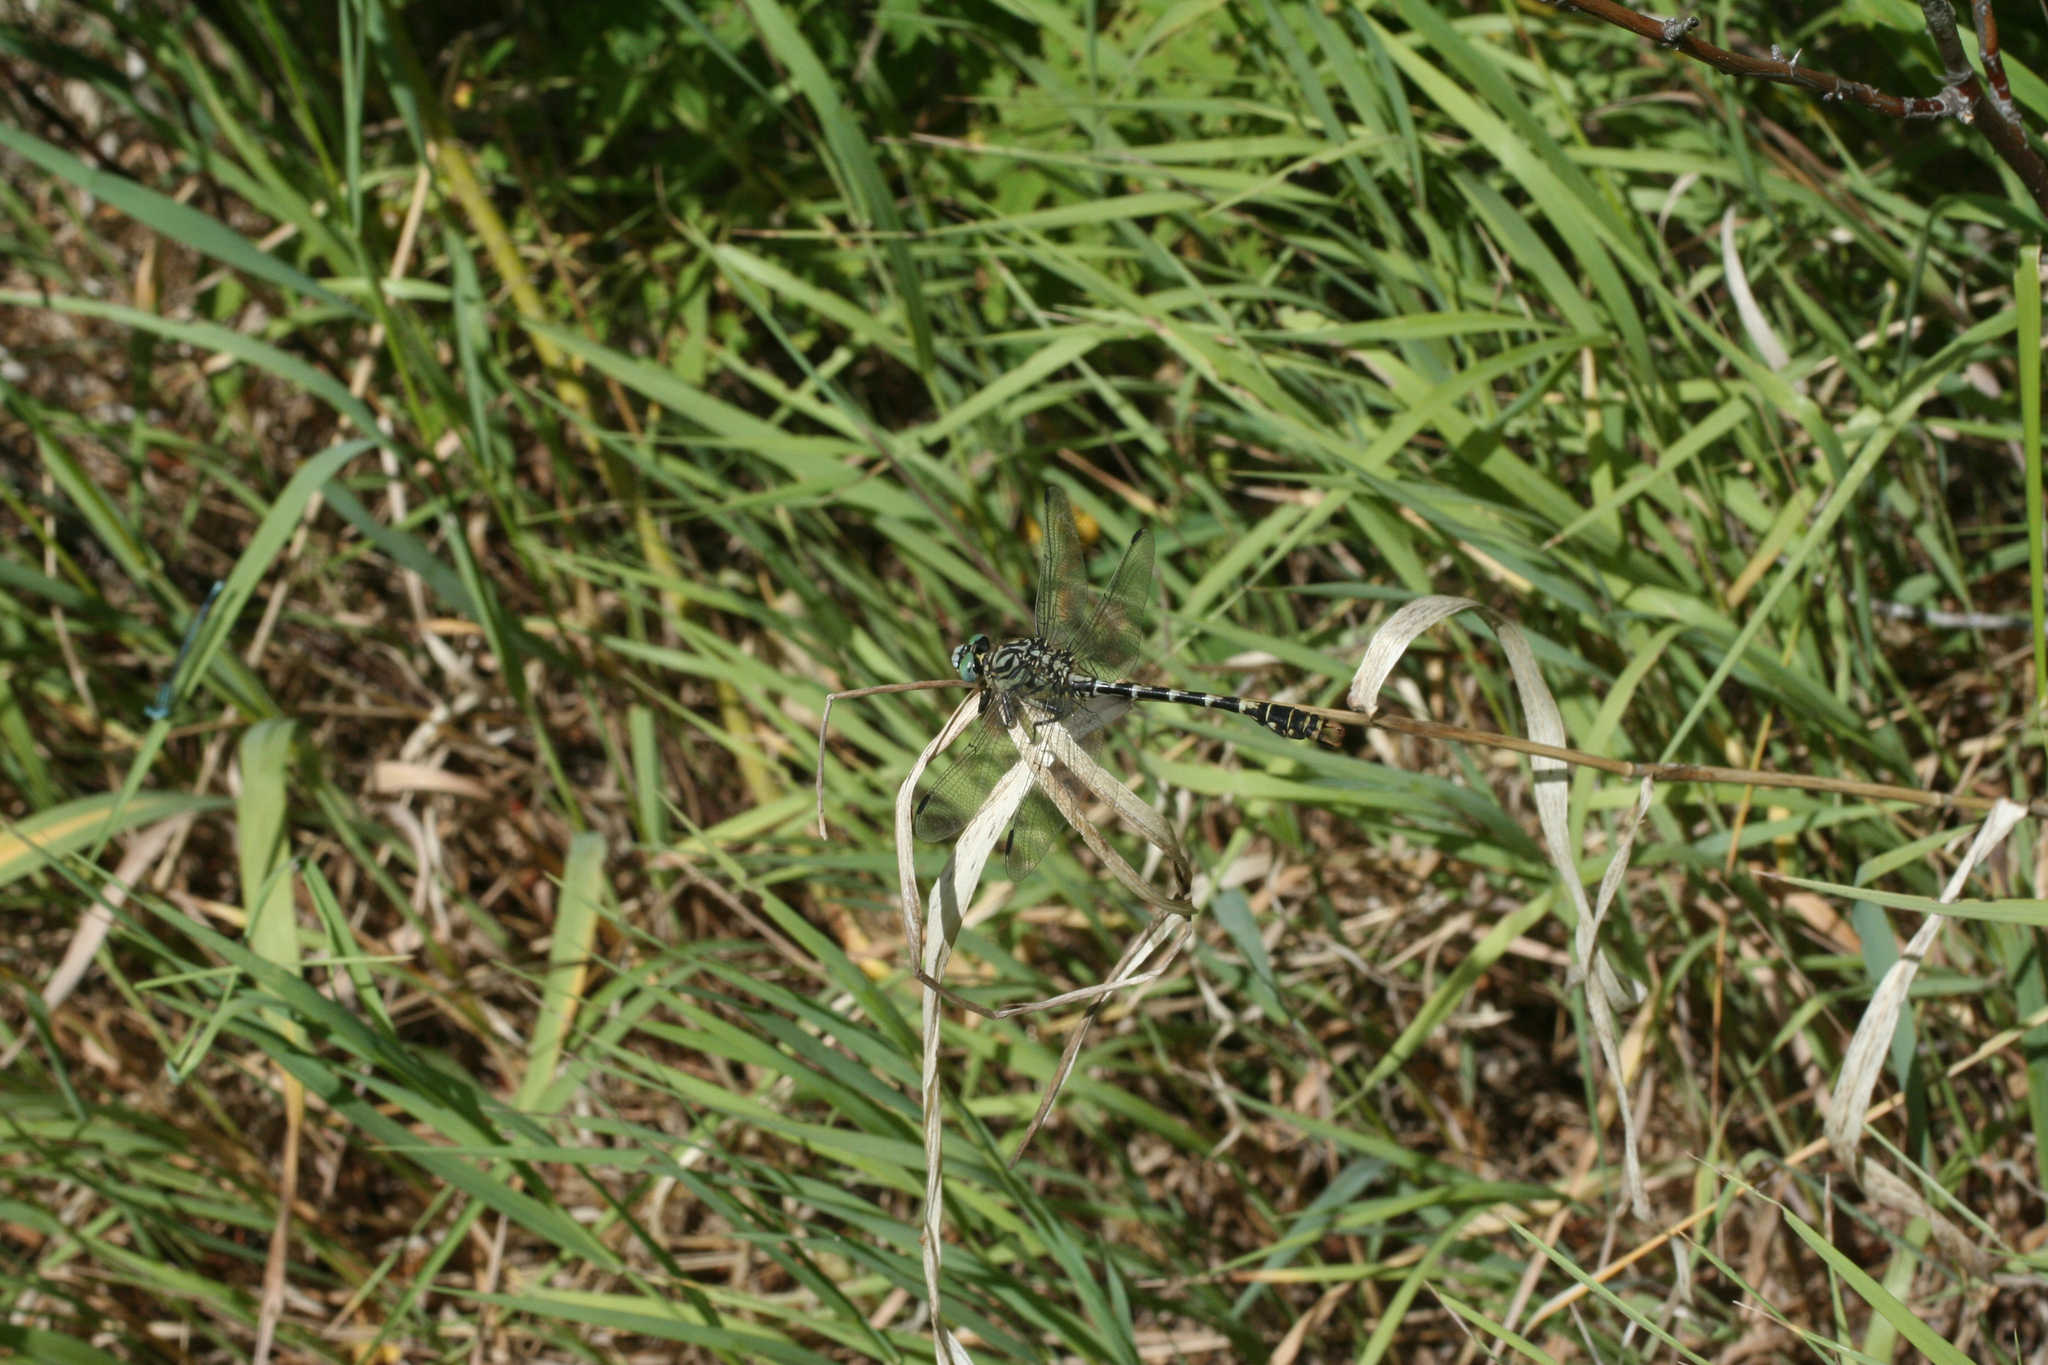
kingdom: Animalia
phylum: Arthropoda
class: Insecta
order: Odonata
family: Gomphidae
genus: Onychogomphus
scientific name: Onychogomphus forcipatus
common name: Small pincertail
